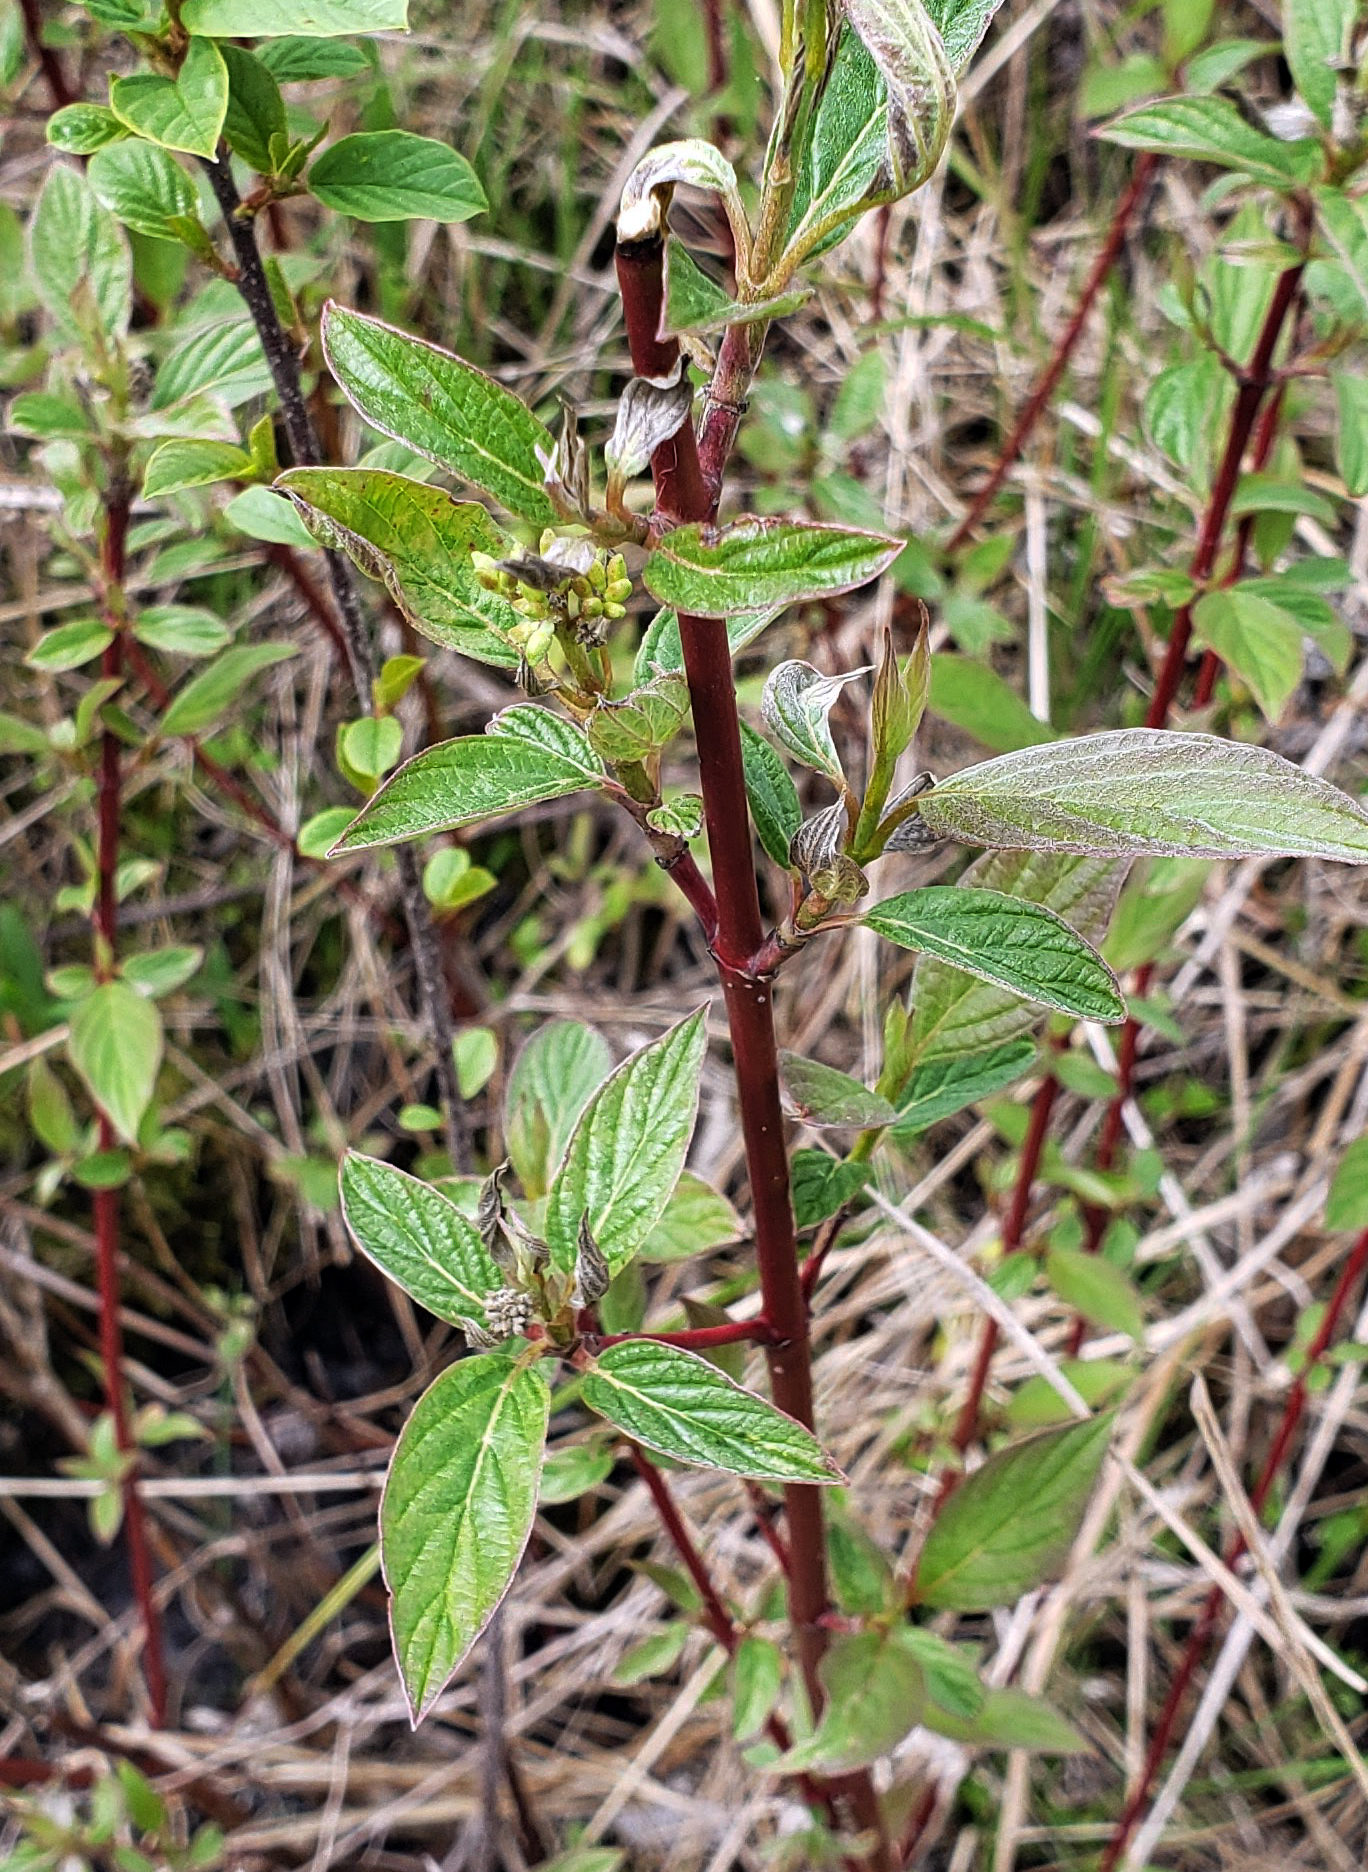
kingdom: Plantae
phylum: Tracheophyta
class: Magnoliopsida
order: Cornales
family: Cornaceae
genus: Cornus
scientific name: Cornus sericea
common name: Red-osier dogwood
